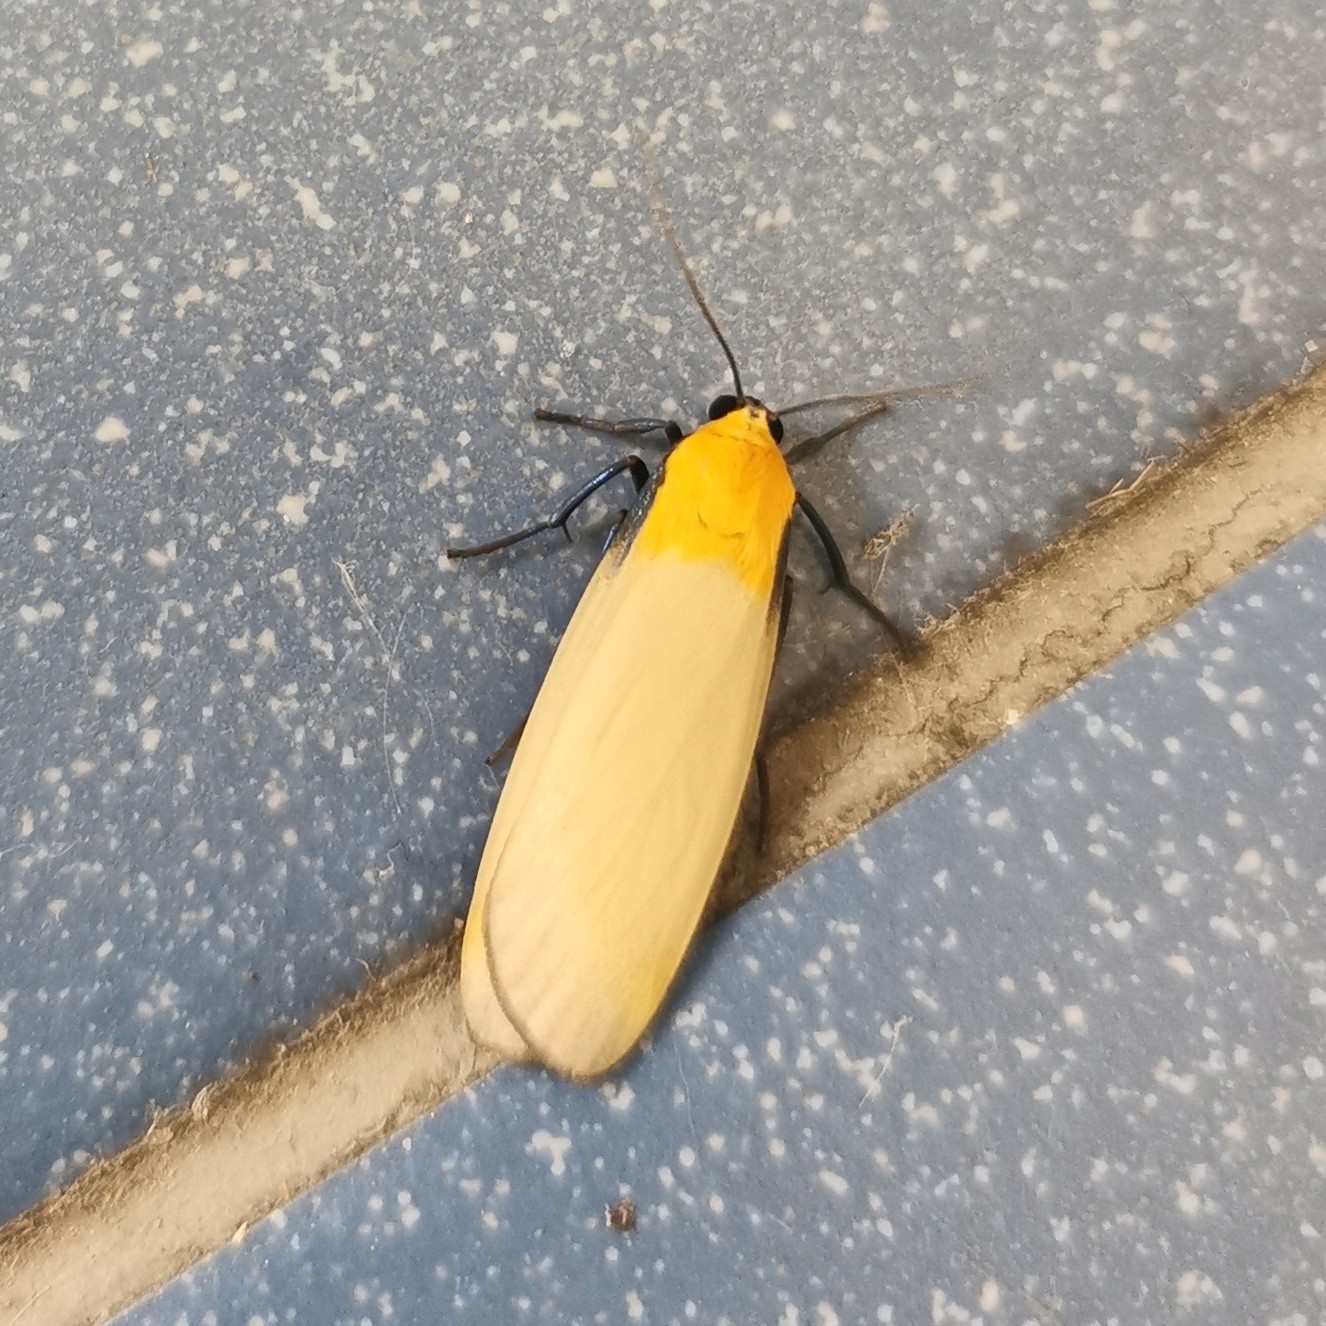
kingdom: Animalia
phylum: Arthropoda
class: Insecta
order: Lepidoptera
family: Erebidae
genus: Lithosia
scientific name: Lithosia quadra
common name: Four-spotted footman
